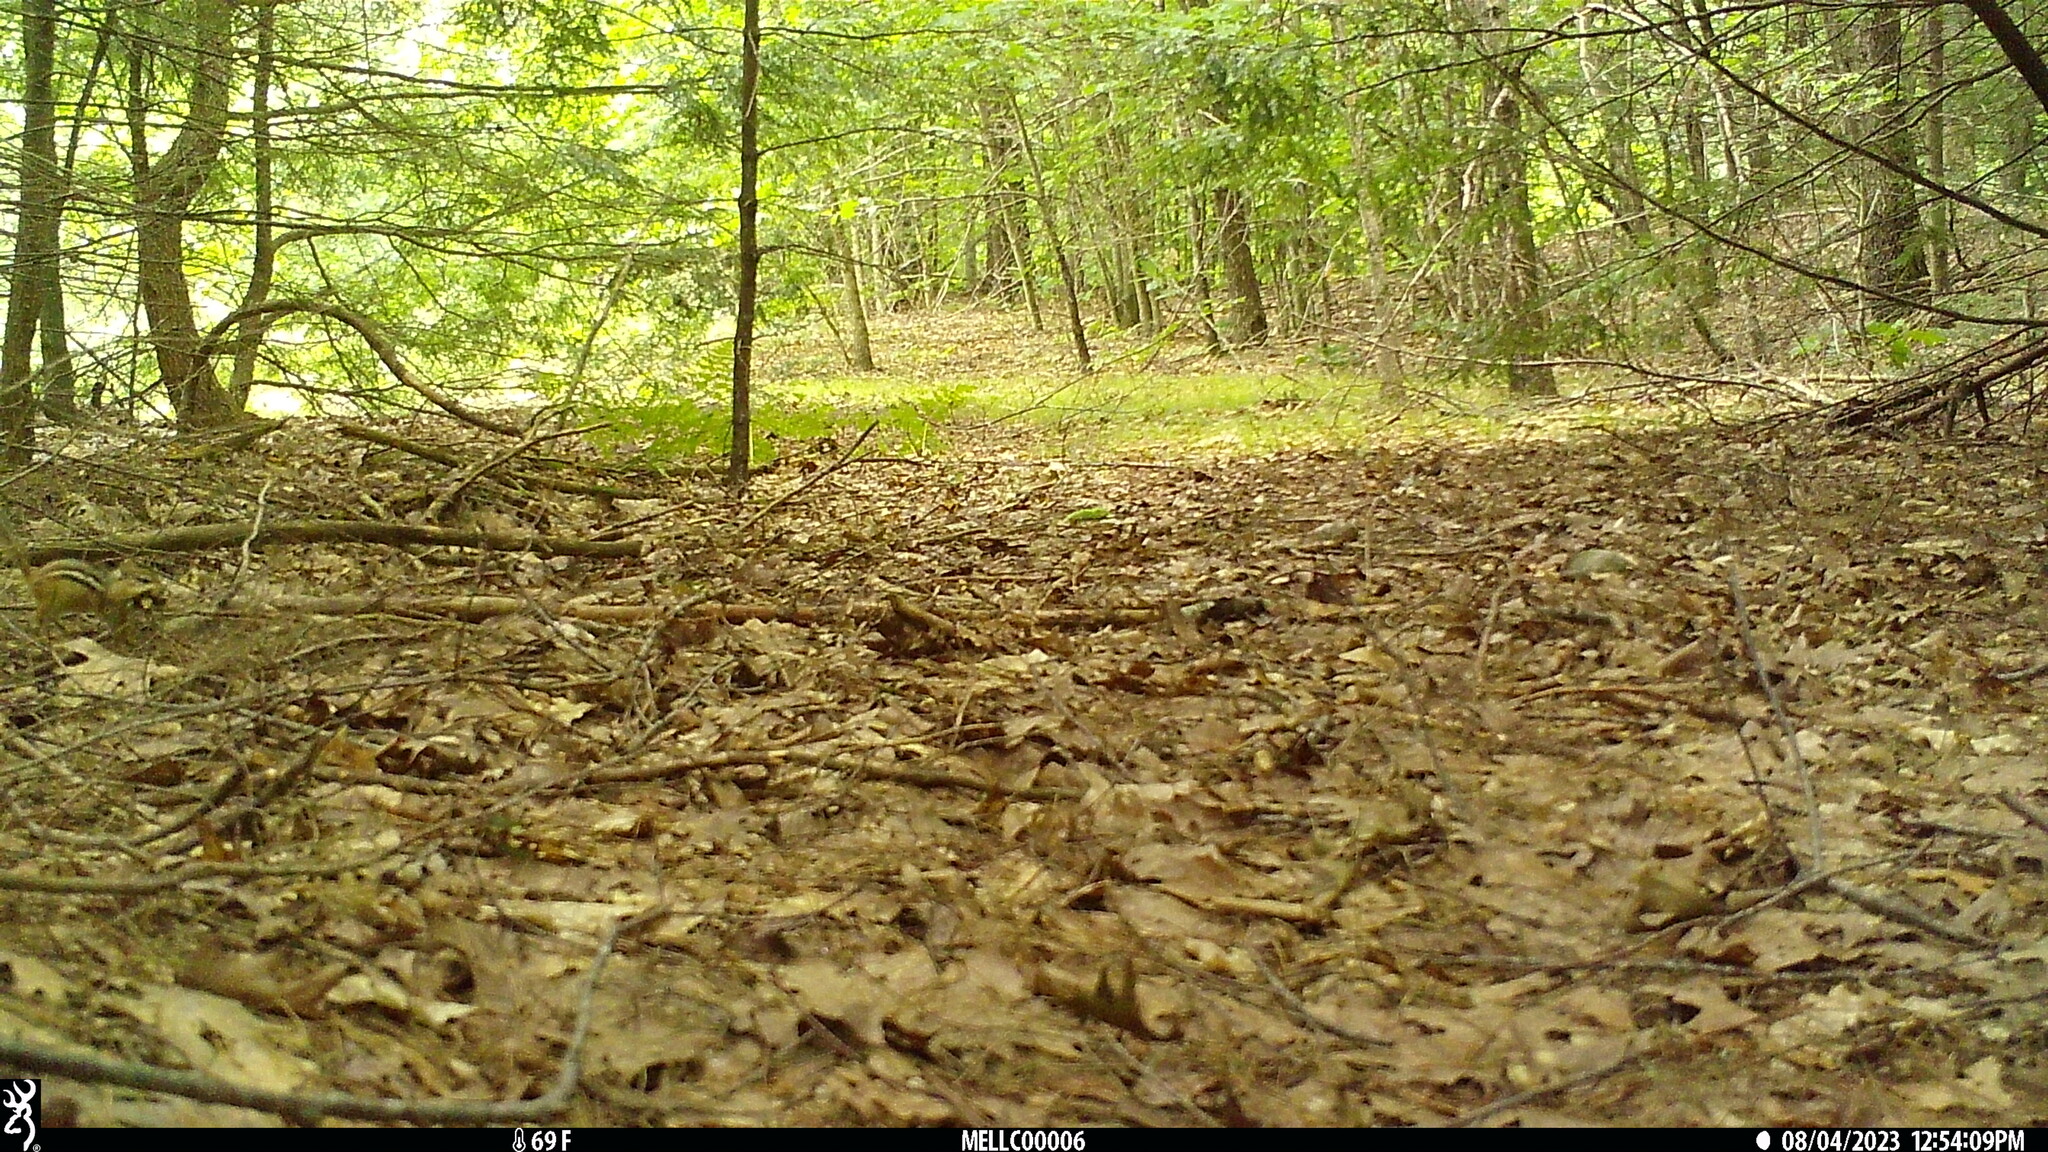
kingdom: Animalia
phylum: Chordata
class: Mammalia
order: Rodentia
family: Sciuridae
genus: Tamias
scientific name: Tamias striatus
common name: Eastern chipmunk
